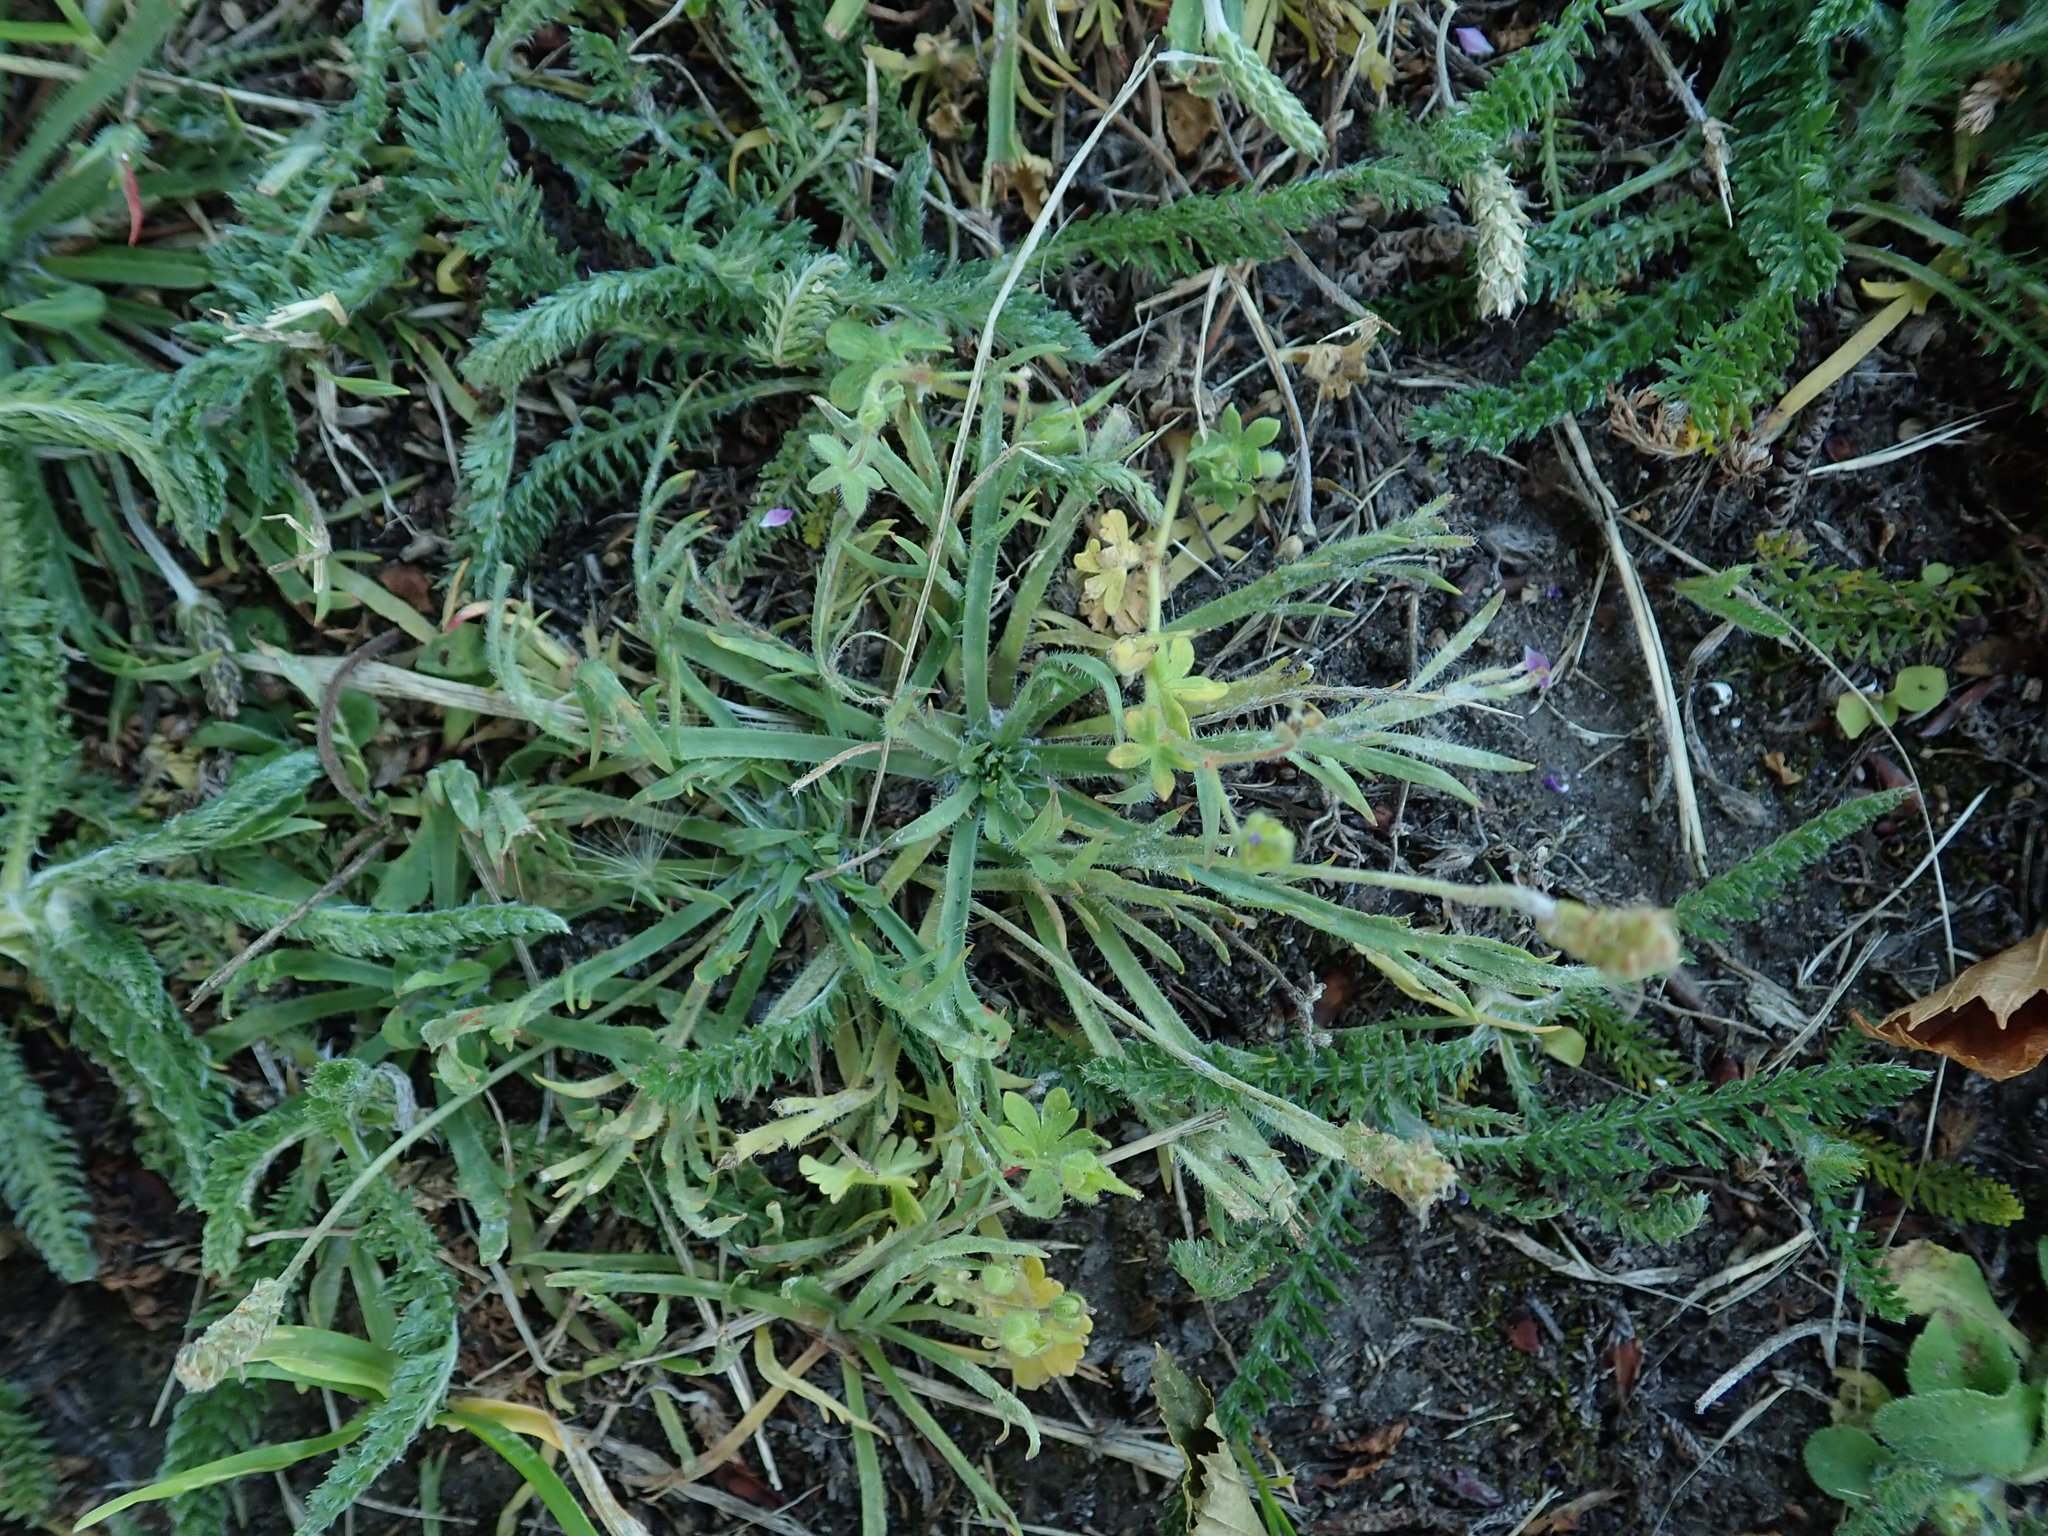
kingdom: Plantae
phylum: Tracheophyta
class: Magnoliopsida
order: Lamiales
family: Plantaginaceae
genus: Plantago
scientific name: Plantago coronopus
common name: Buck's-horn plantain
